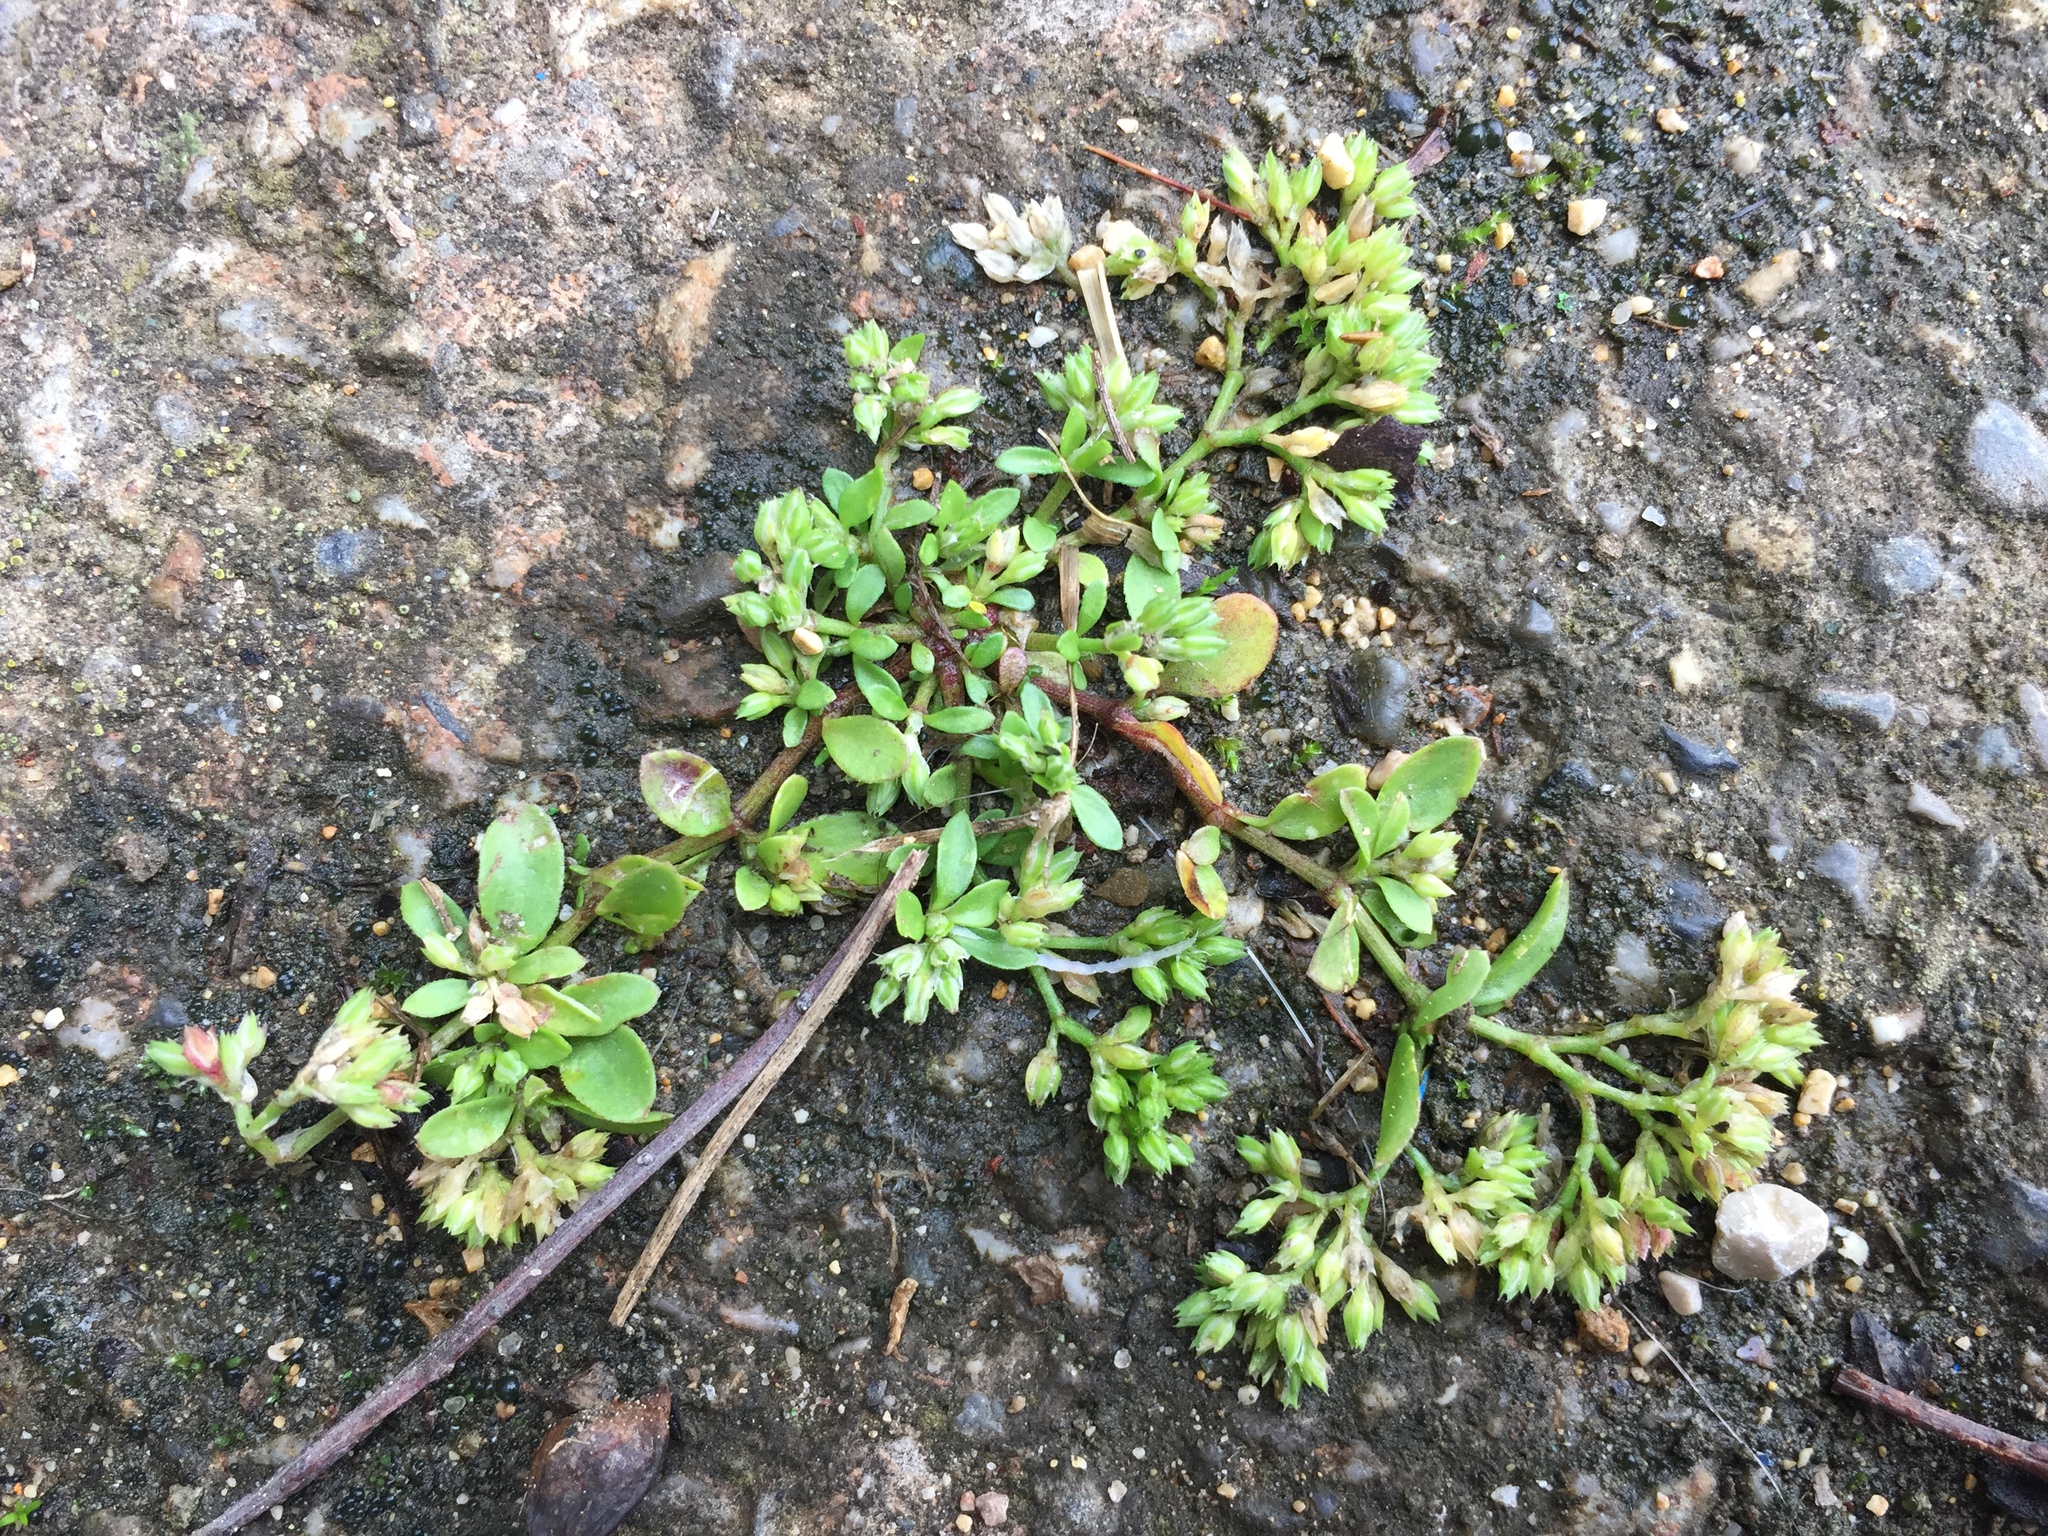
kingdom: Plantae
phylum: Tracheophyta
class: Magnoliopsida
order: Caryophyllales
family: Caryophyllaceae
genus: Polycarpon
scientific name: Polycarpon tetraphyllum
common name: Four-leaved all-seed
